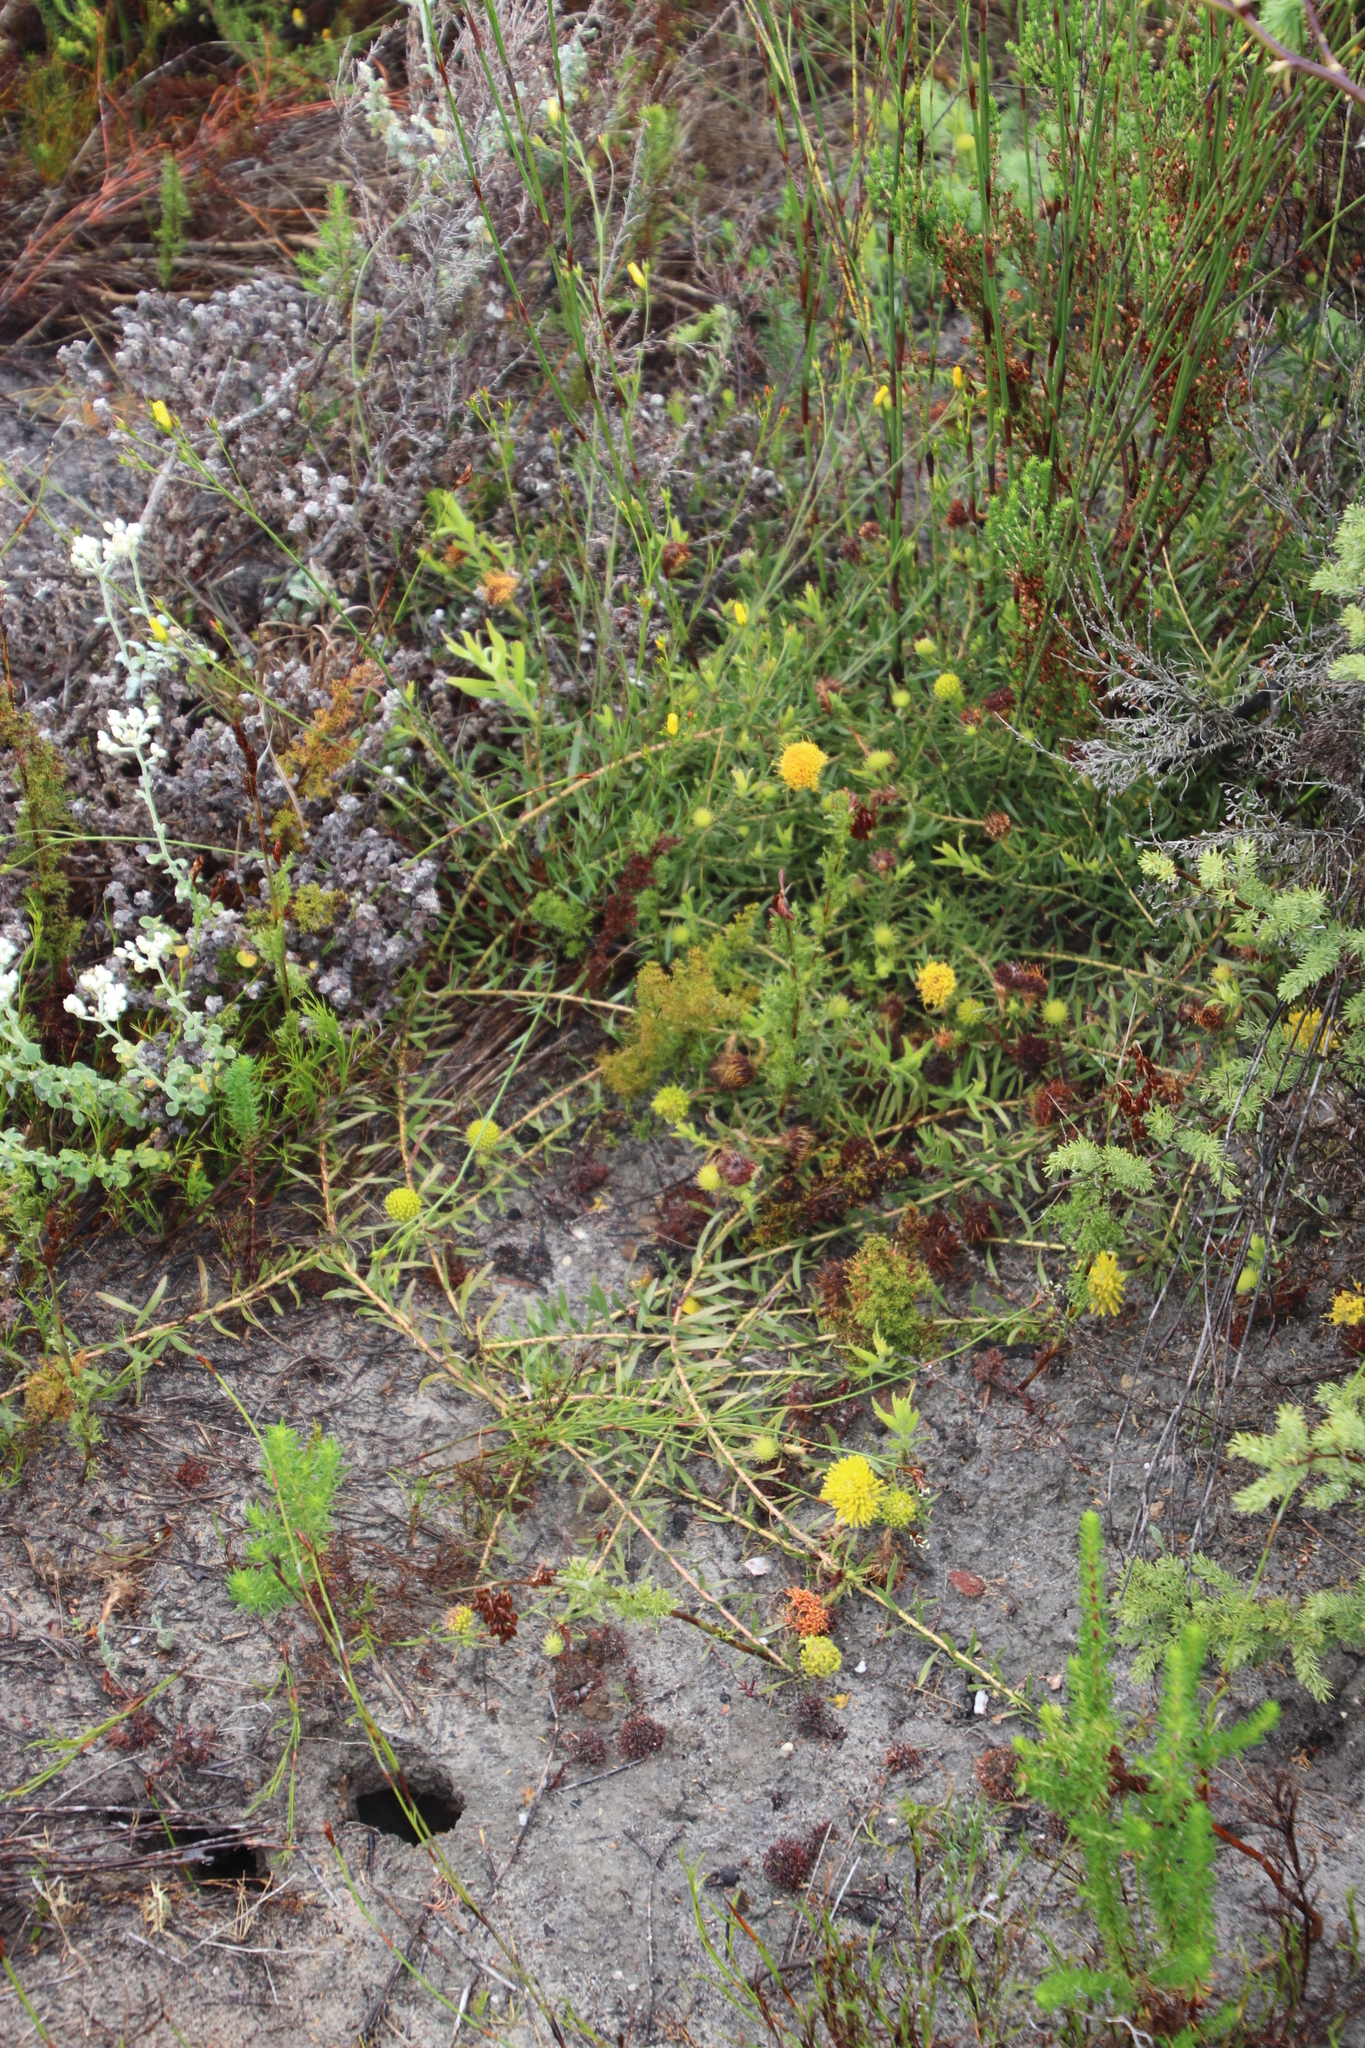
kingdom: Plantae
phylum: Tracheophyta
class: Magnoliopsida
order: Proteales
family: Proteaceae
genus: Leucospermum
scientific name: Leucospermum prostratum
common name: Yellow-trailing pincushion
